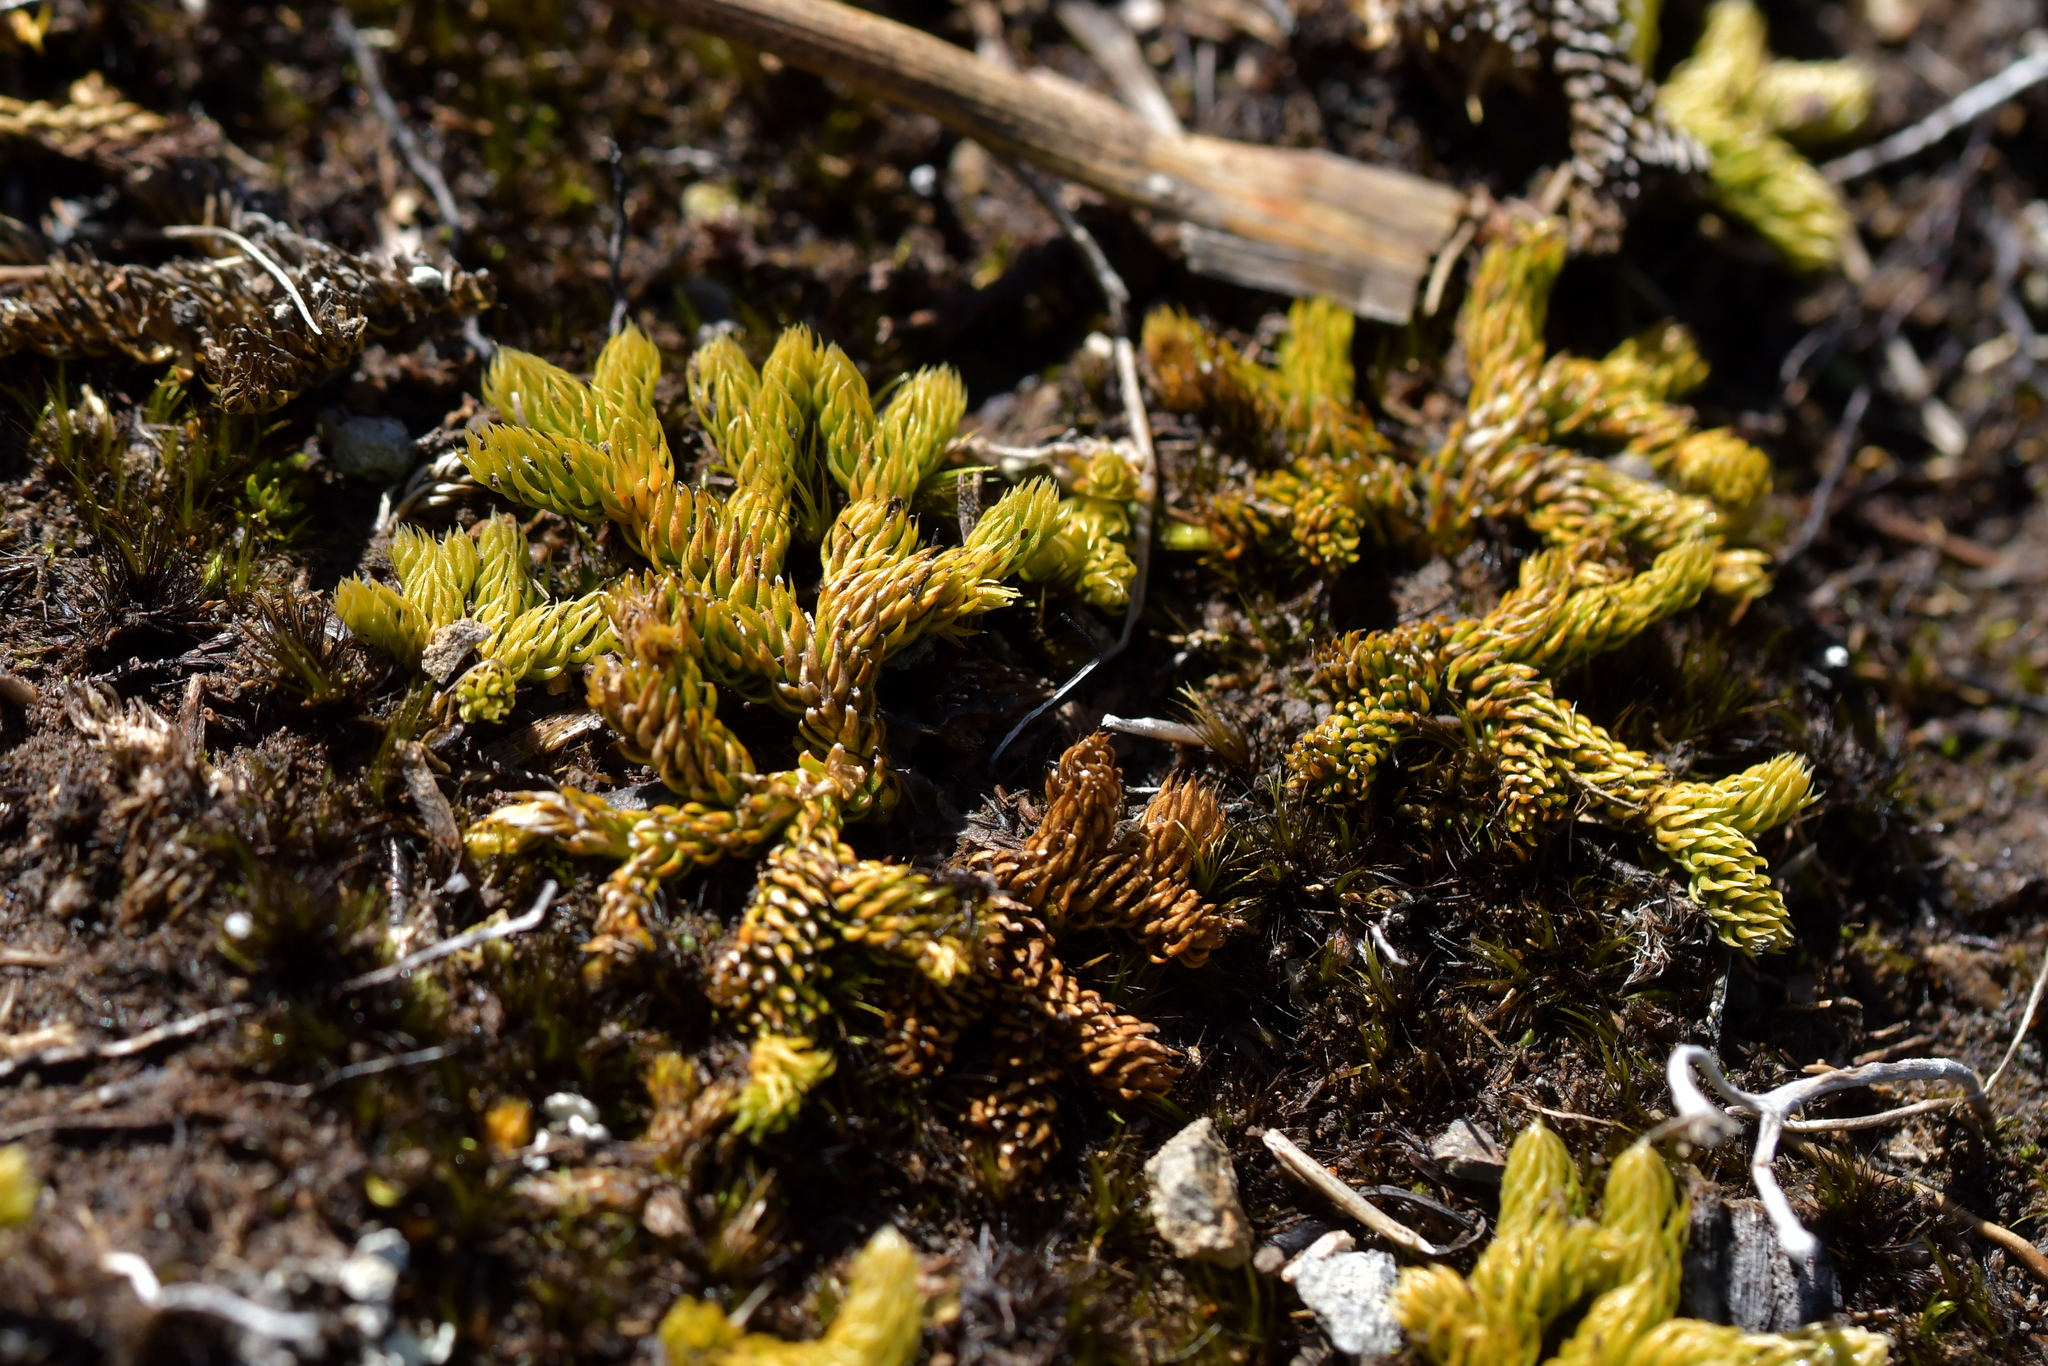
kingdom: Plantae
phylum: Tracheophyta
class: Lycopodiopsida
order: Lycopodiales
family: Lycopodiaceae
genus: Austrolycopodium
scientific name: Austrolycopodium fastigiatum
